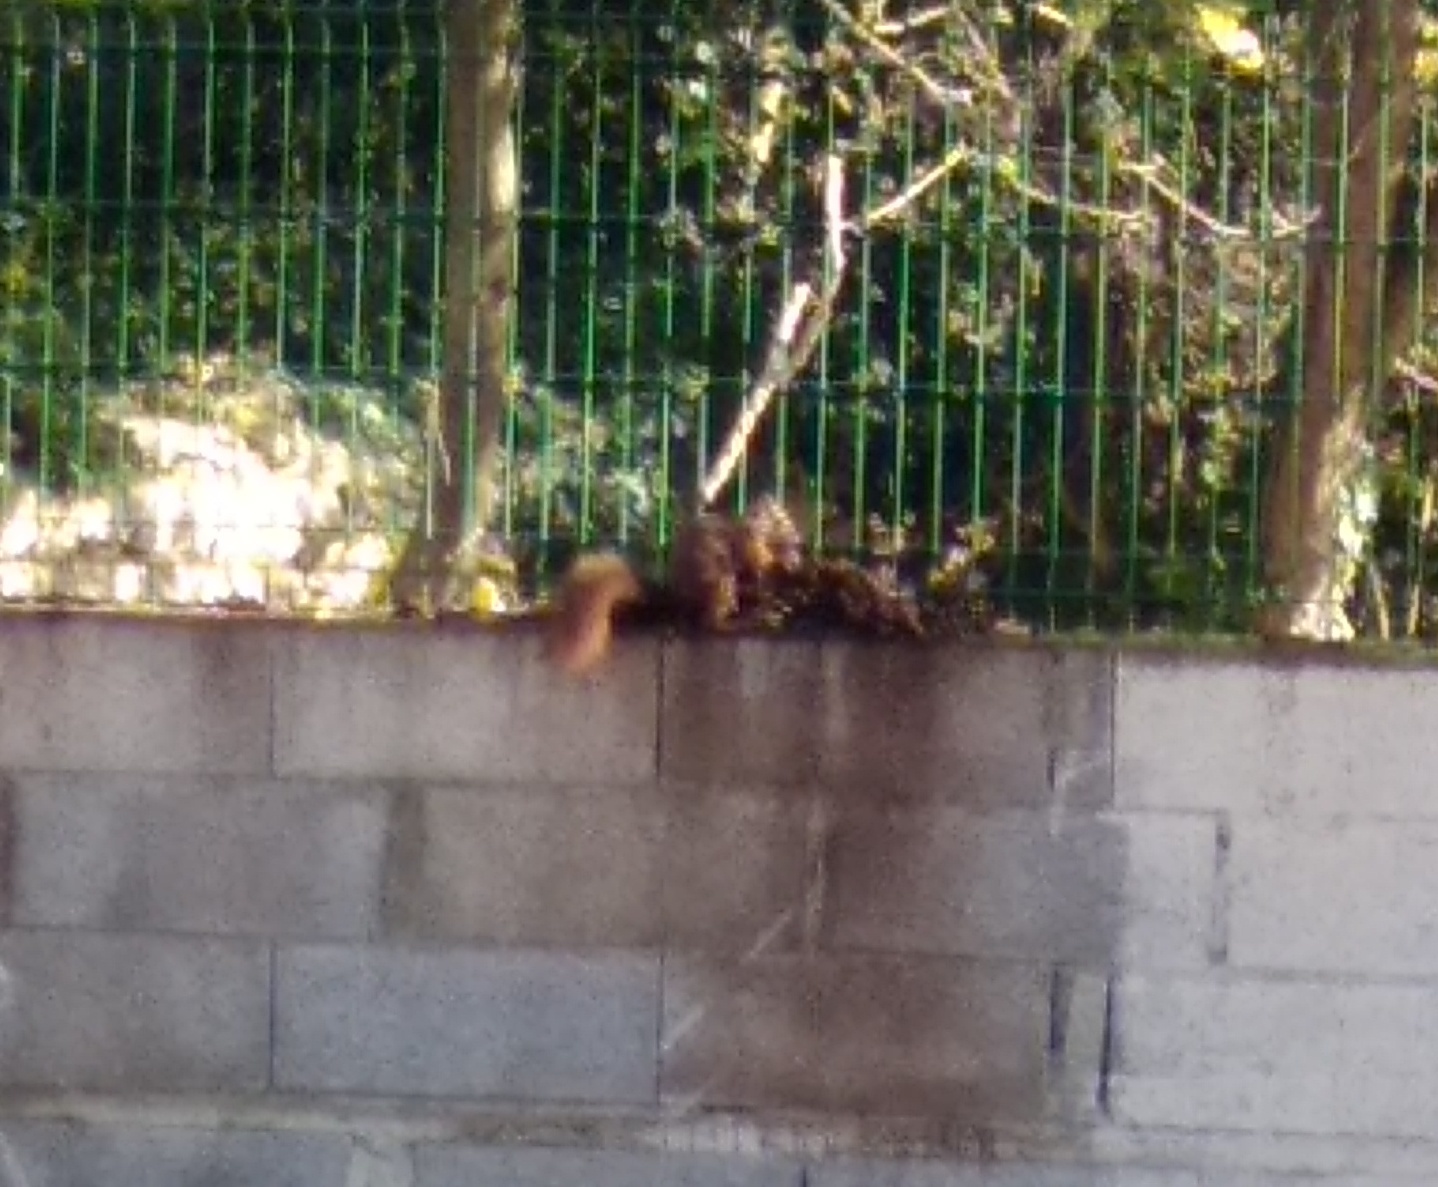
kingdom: Animalia
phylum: Chordata
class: Mammalia
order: Rodentia
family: Sciuridae
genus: Sciurus
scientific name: Sciurus vulgaris
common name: Eurasian red squirrel
